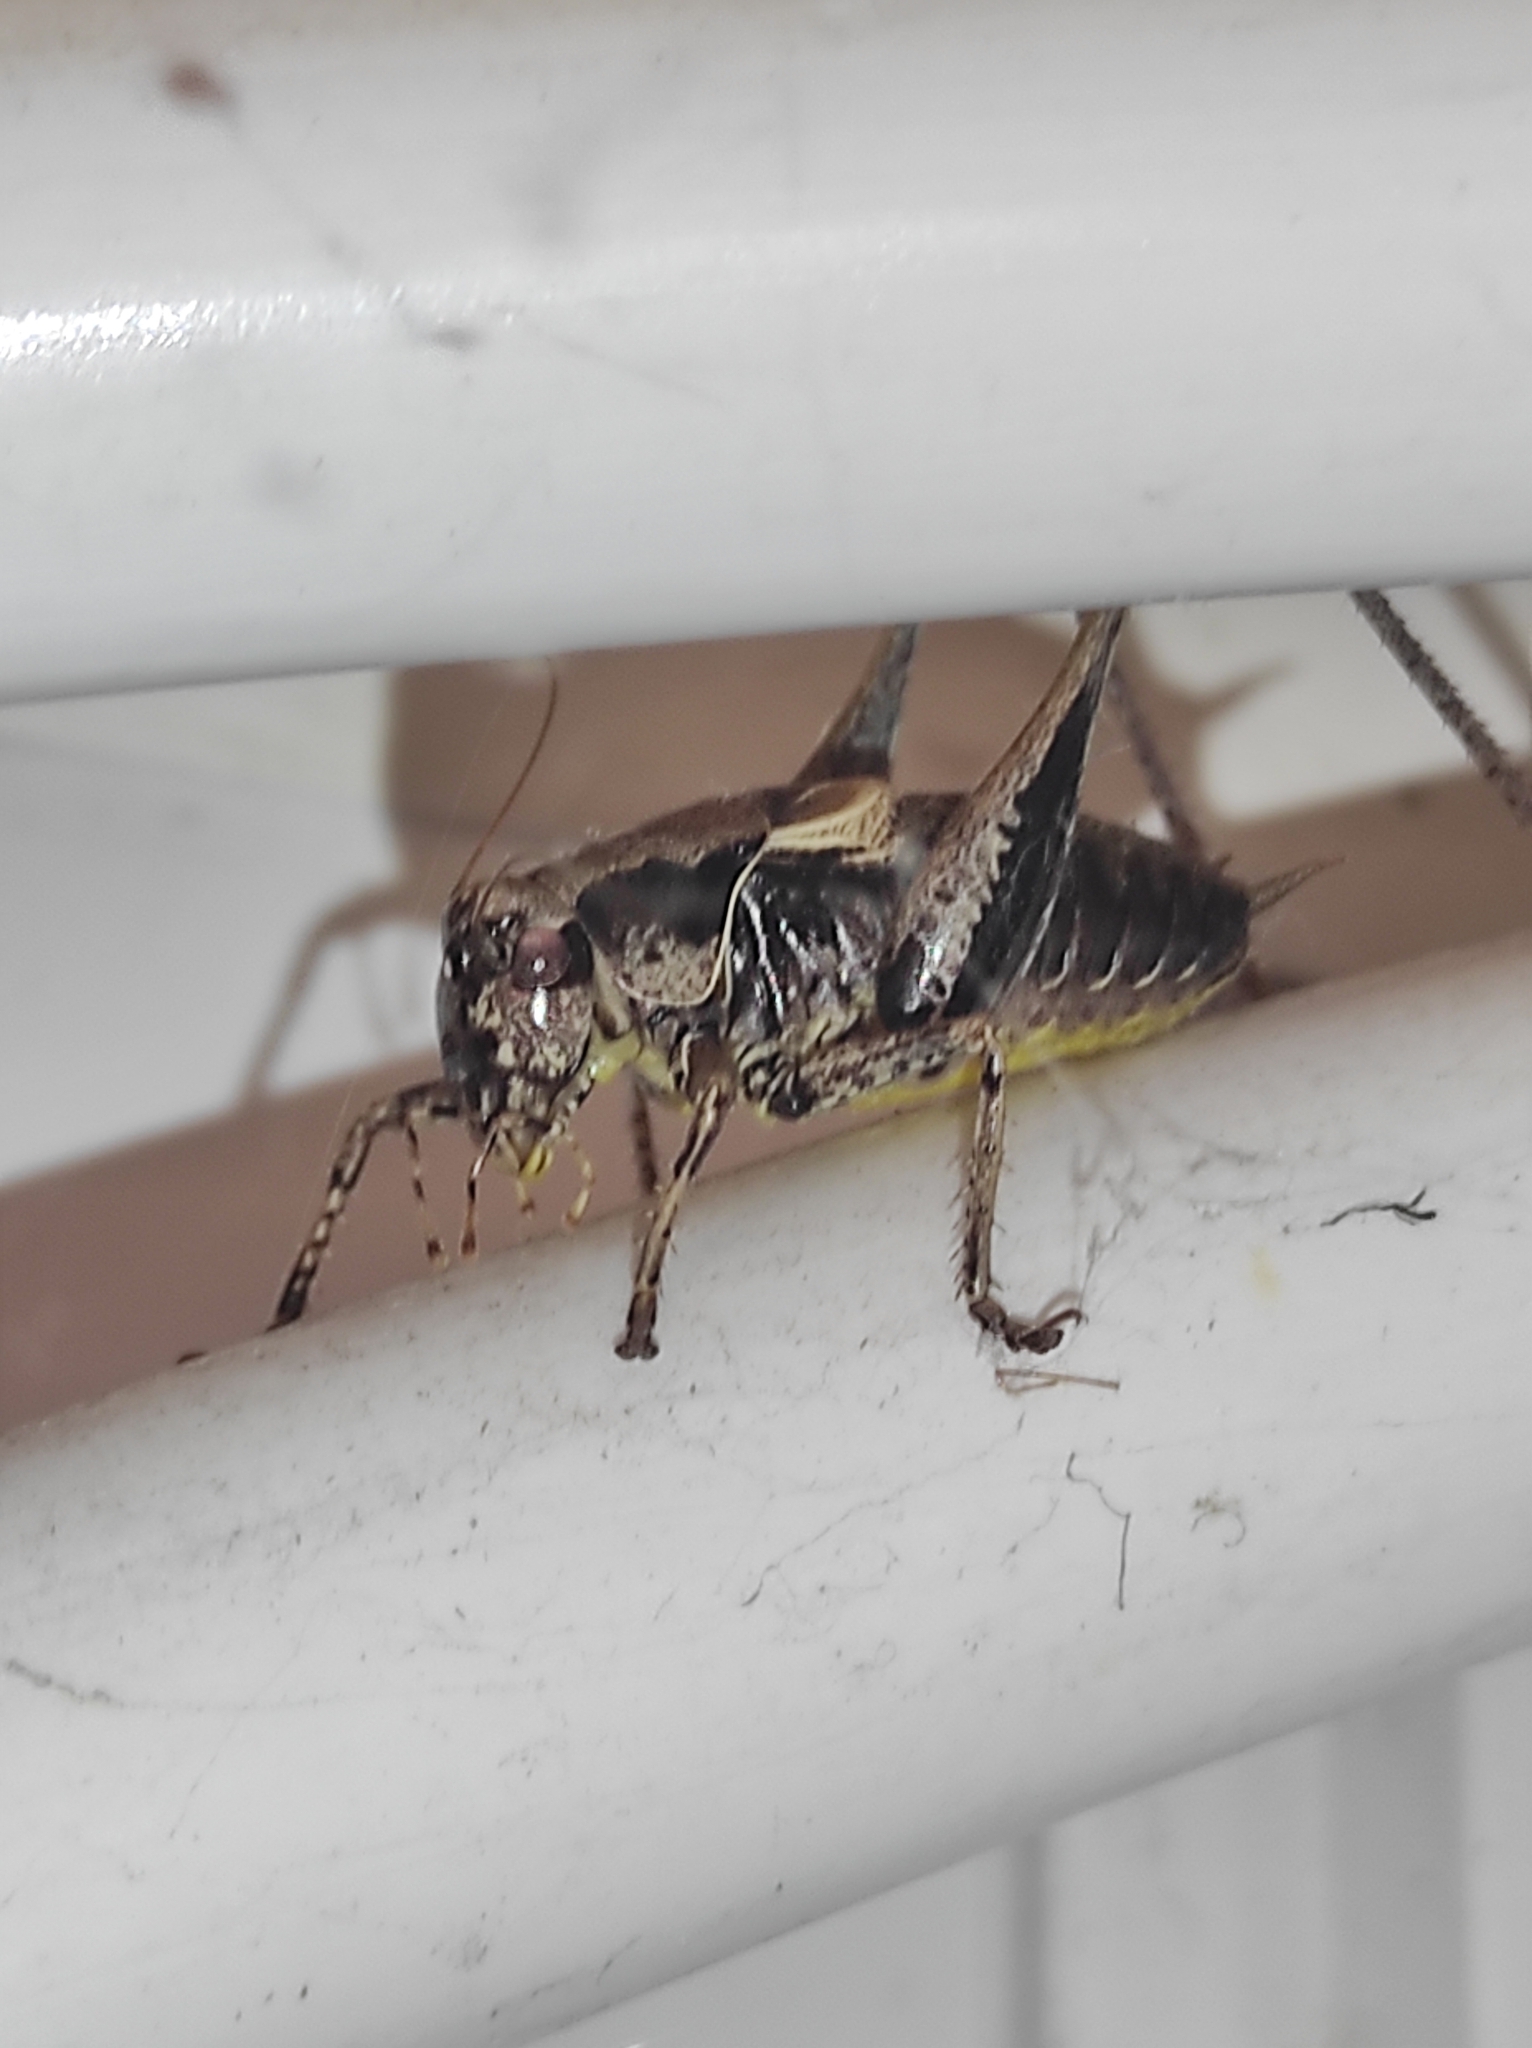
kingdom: Animalia
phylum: Arthropoda
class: Insecta
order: Orthoptera
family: Tettigoniidae
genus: Pholidoptera
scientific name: Pholidoptera griseoaptera
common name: Dark bush-cricket
